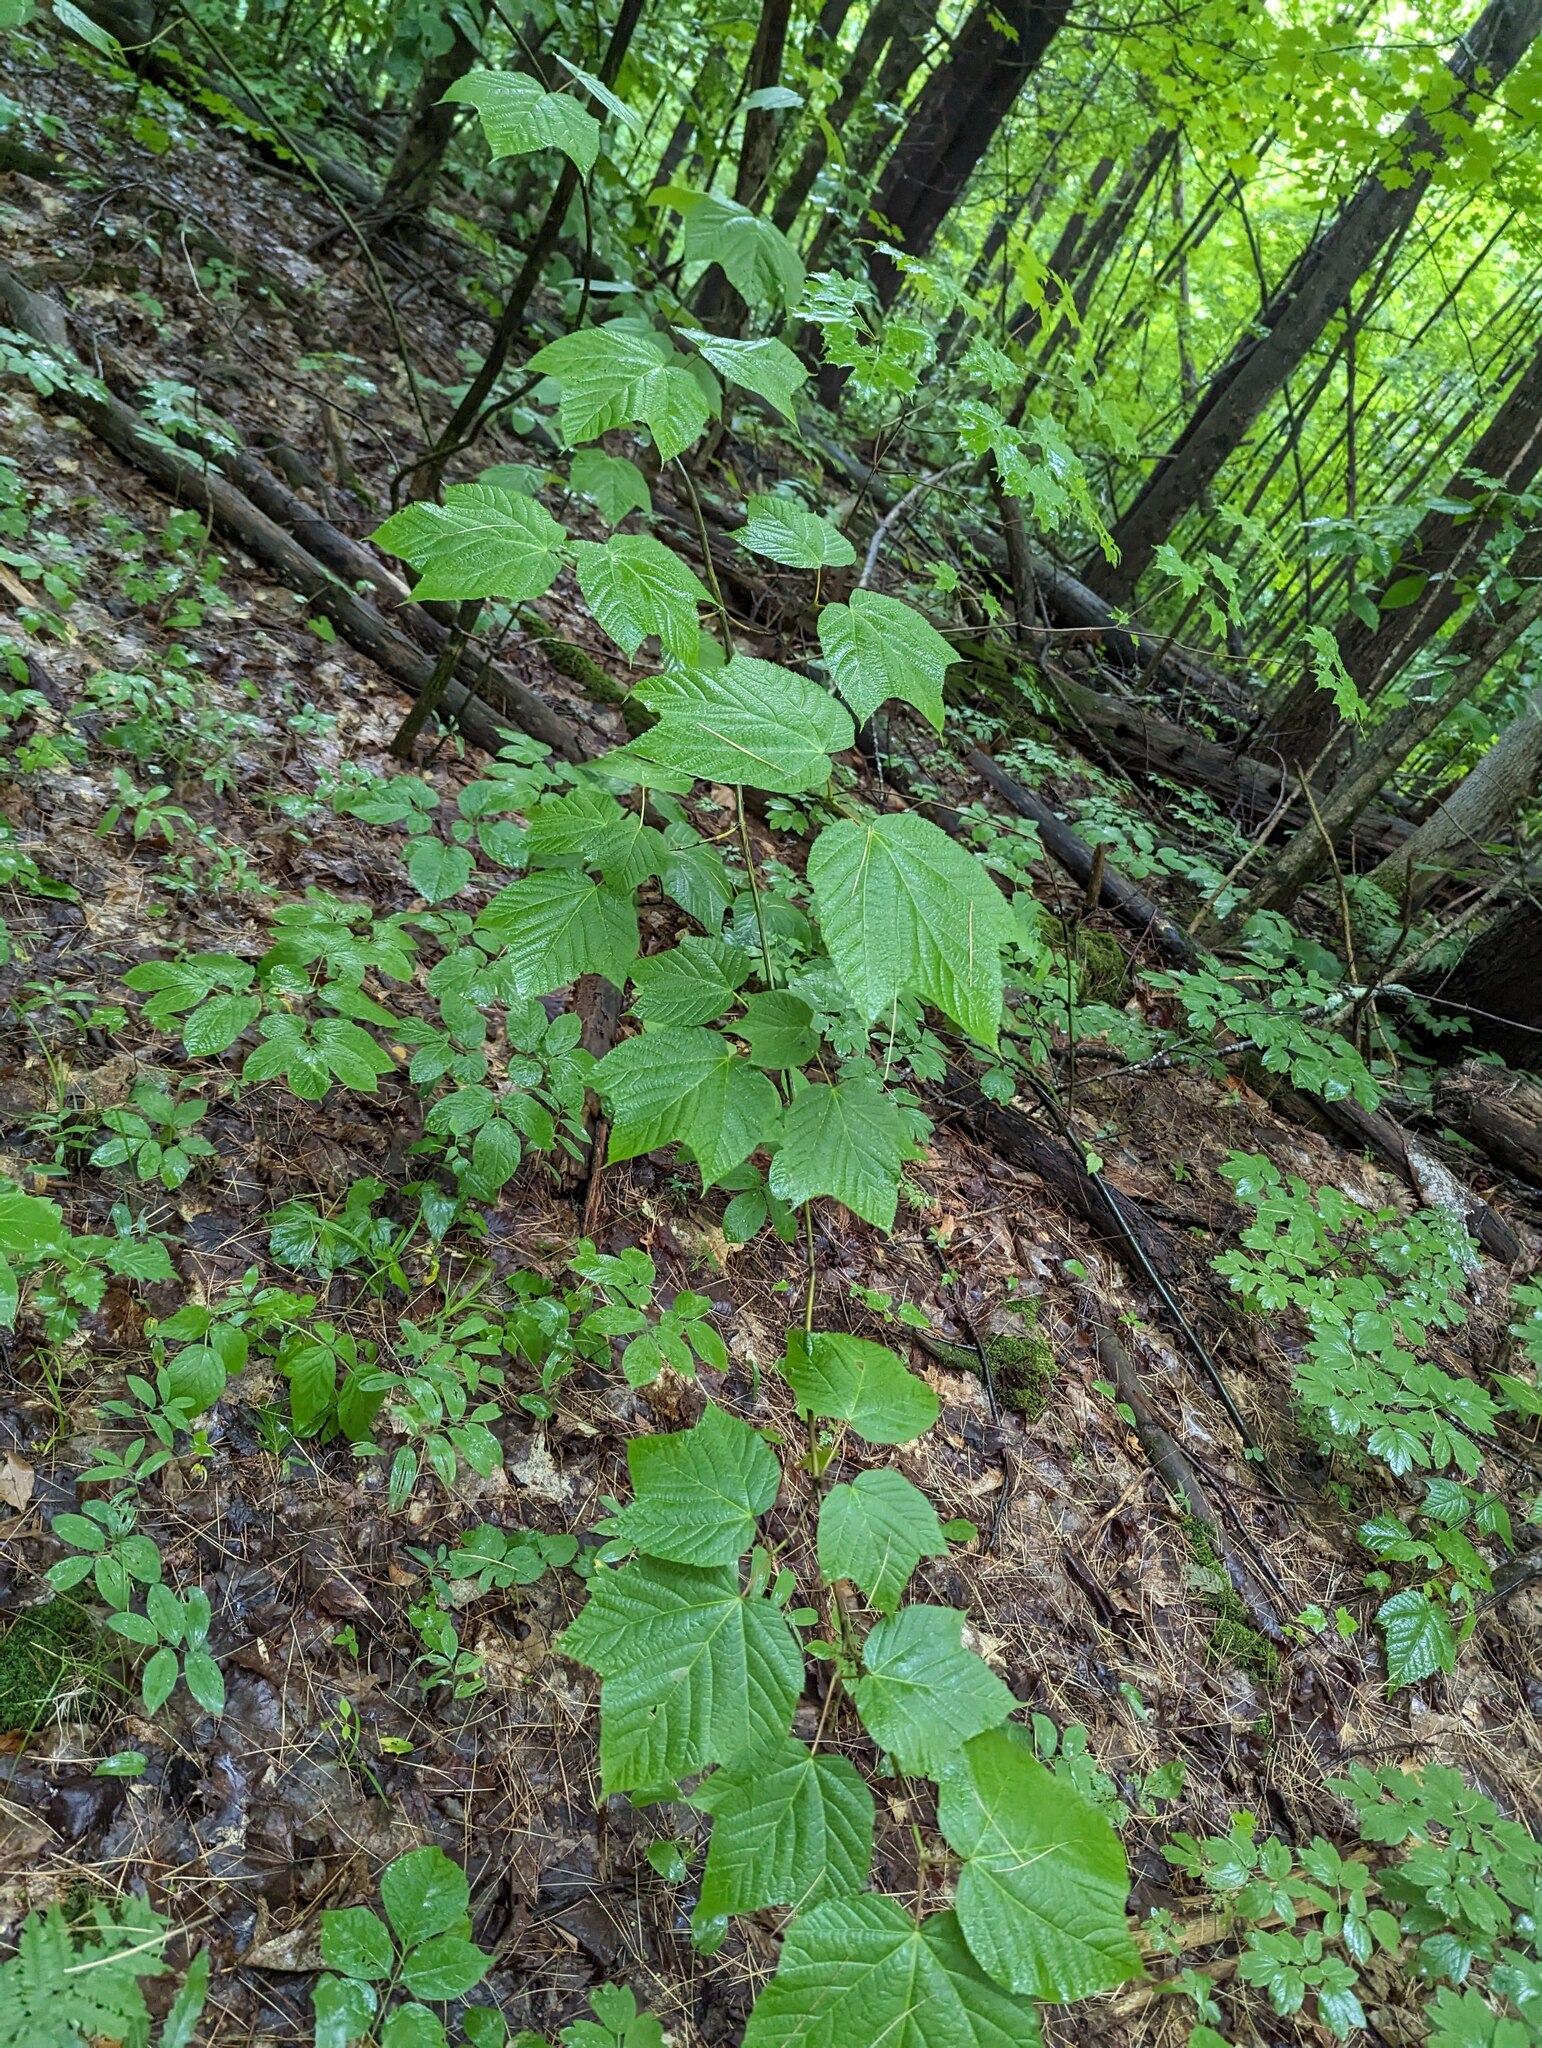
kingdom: Plantae
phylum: Tracheophyta
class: Magnoliopsida
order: Sapindales
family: Sapindaceae
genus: Acer
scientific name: Acer pensylvanicum
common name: Moosewood
